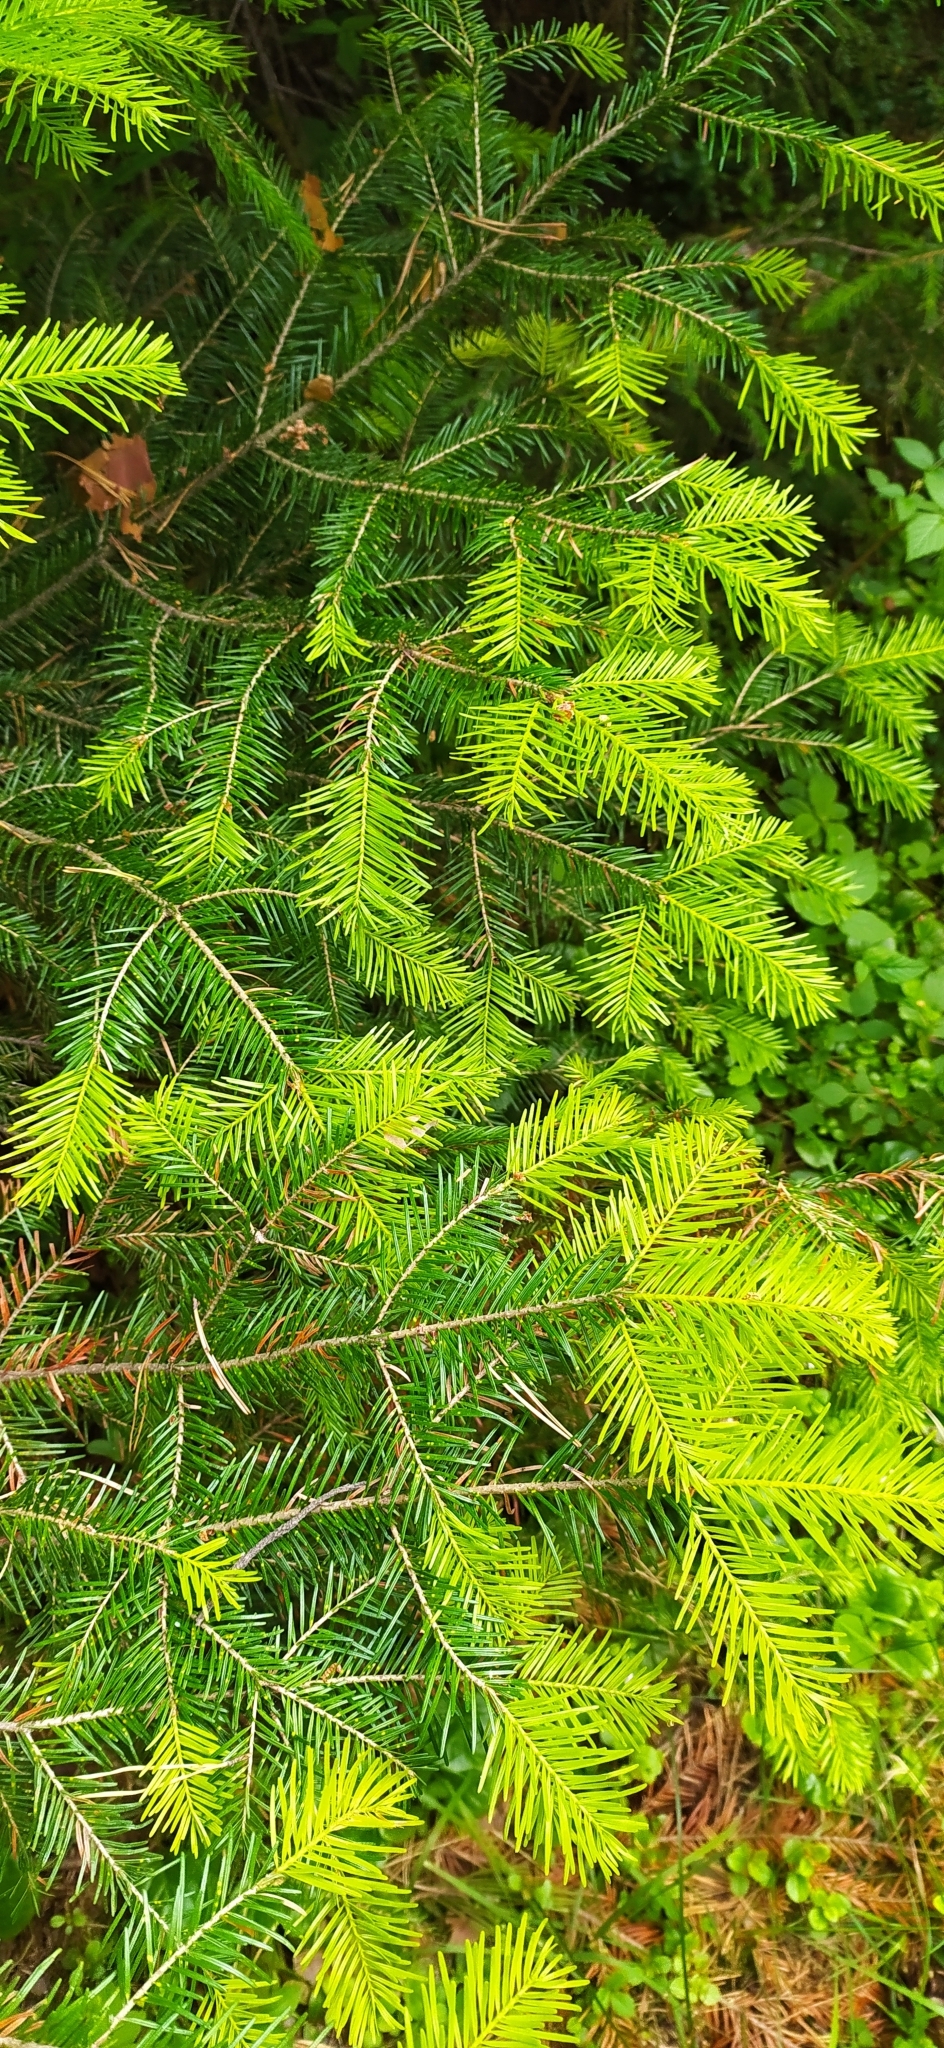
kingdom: Plantae
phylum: Tracheophyta
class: Pinopsida
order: Pinales
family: Pinaceae
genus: Abies
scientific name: Abies sibirica
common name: Siberian fir
